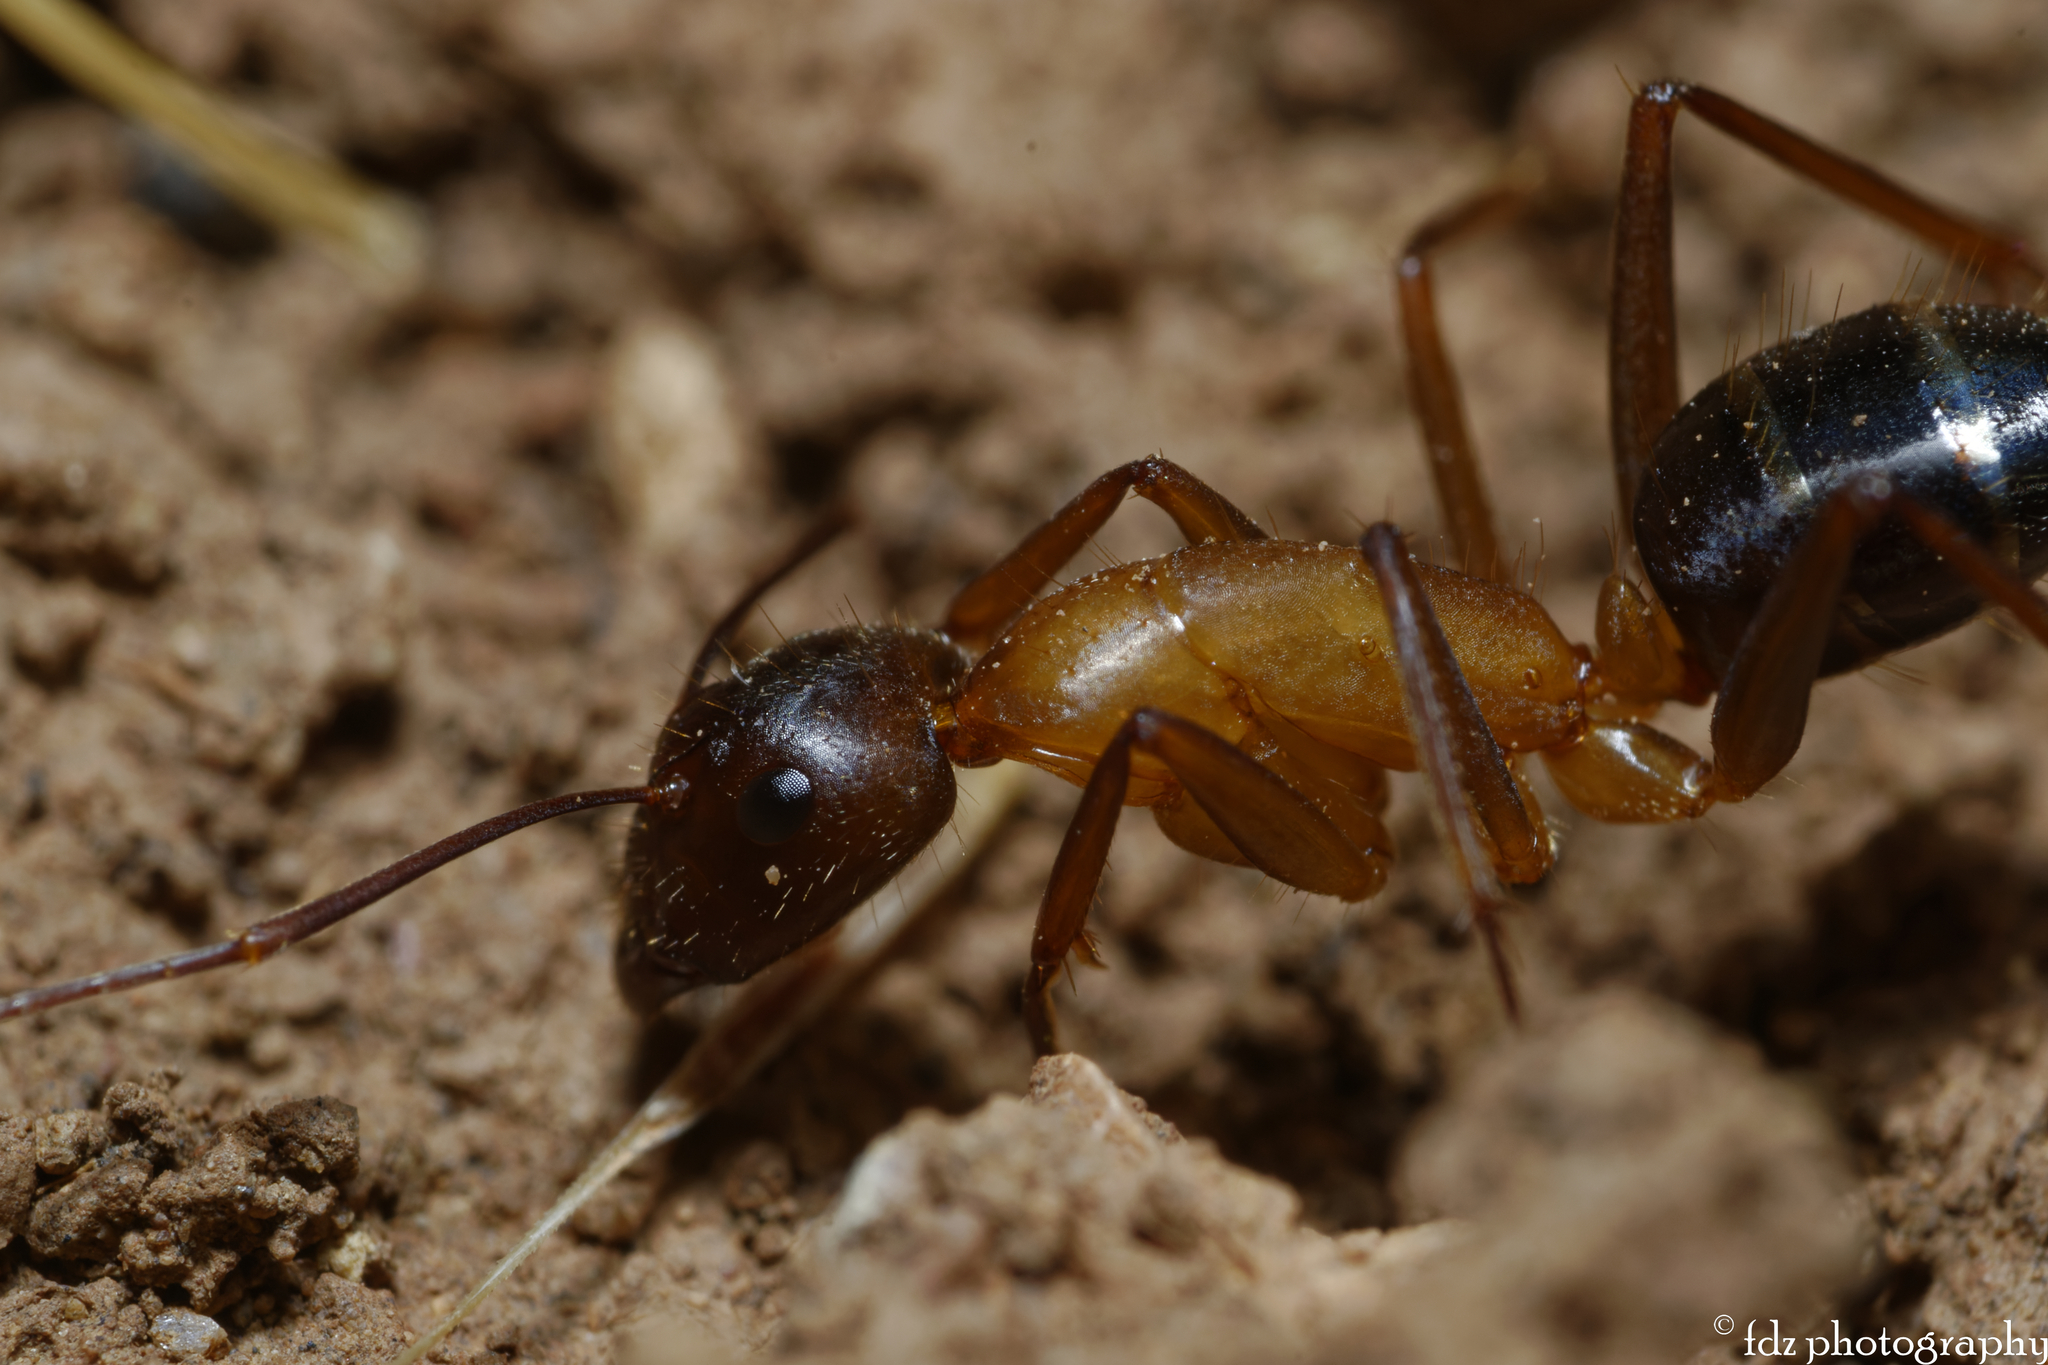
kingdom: Animalia
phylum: Arthropoda
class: Insecta
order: Hymenoptera
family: Formicidae
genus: Camponotus
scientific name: Camponotus pilicornis
